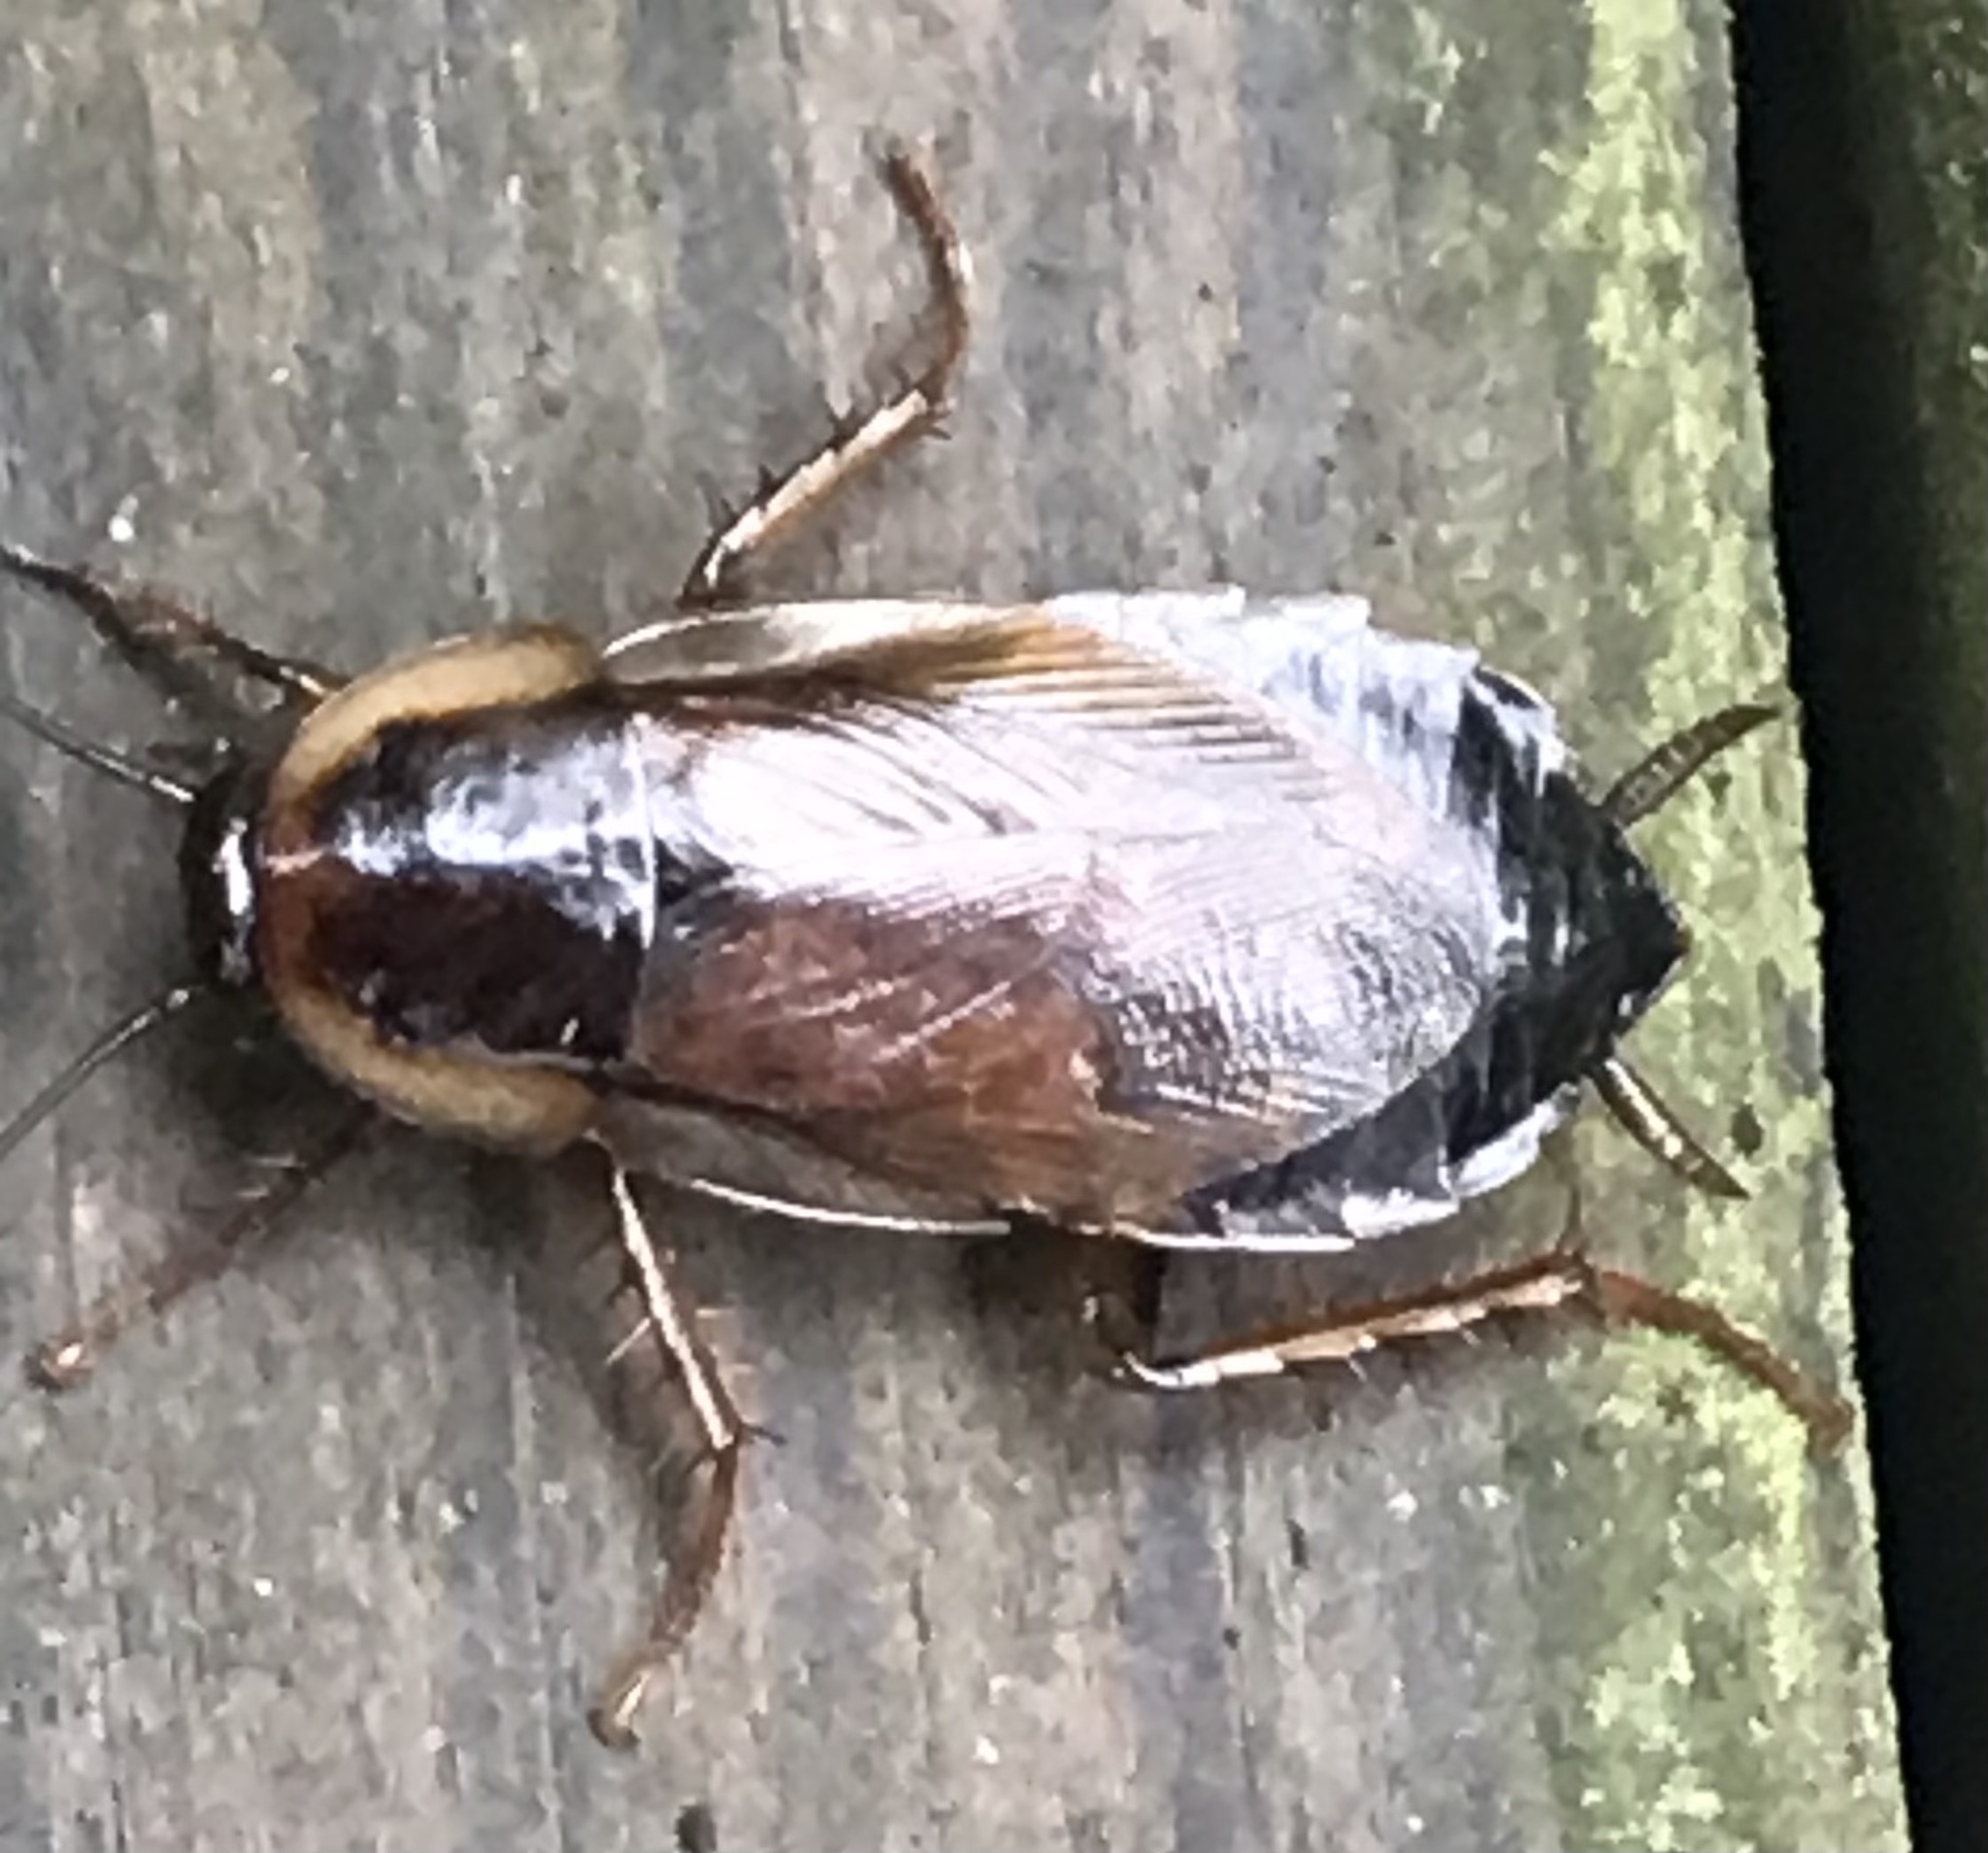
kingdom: Animalia
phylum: Arthropoda
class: Insecta
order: Blattodea
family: Ectobiidae
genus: Parcoblatta
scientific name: Parcoblatta pennsylvanica
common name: Pennsylvanian wood cockroach
